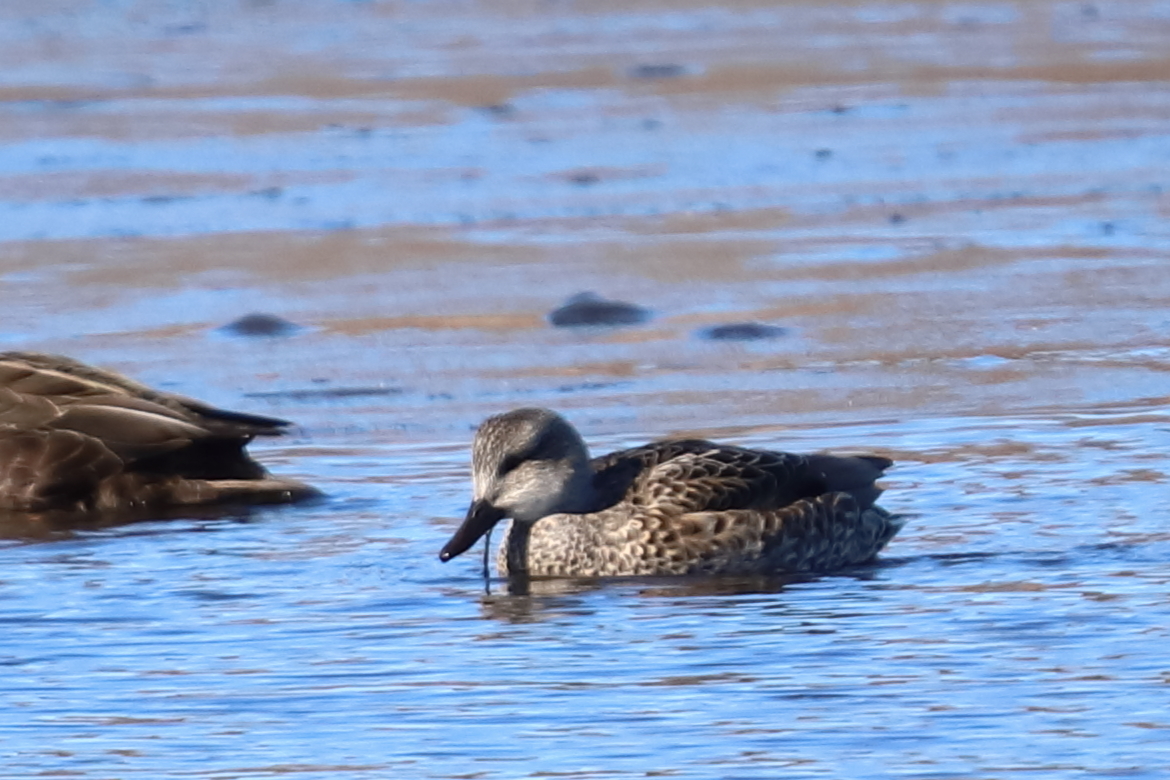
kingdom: Animalia
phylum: Chordata
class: Aves
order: Anseriformes
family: Anatidae
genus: Mareca
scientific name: Mareca strepera
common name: Gadwall
